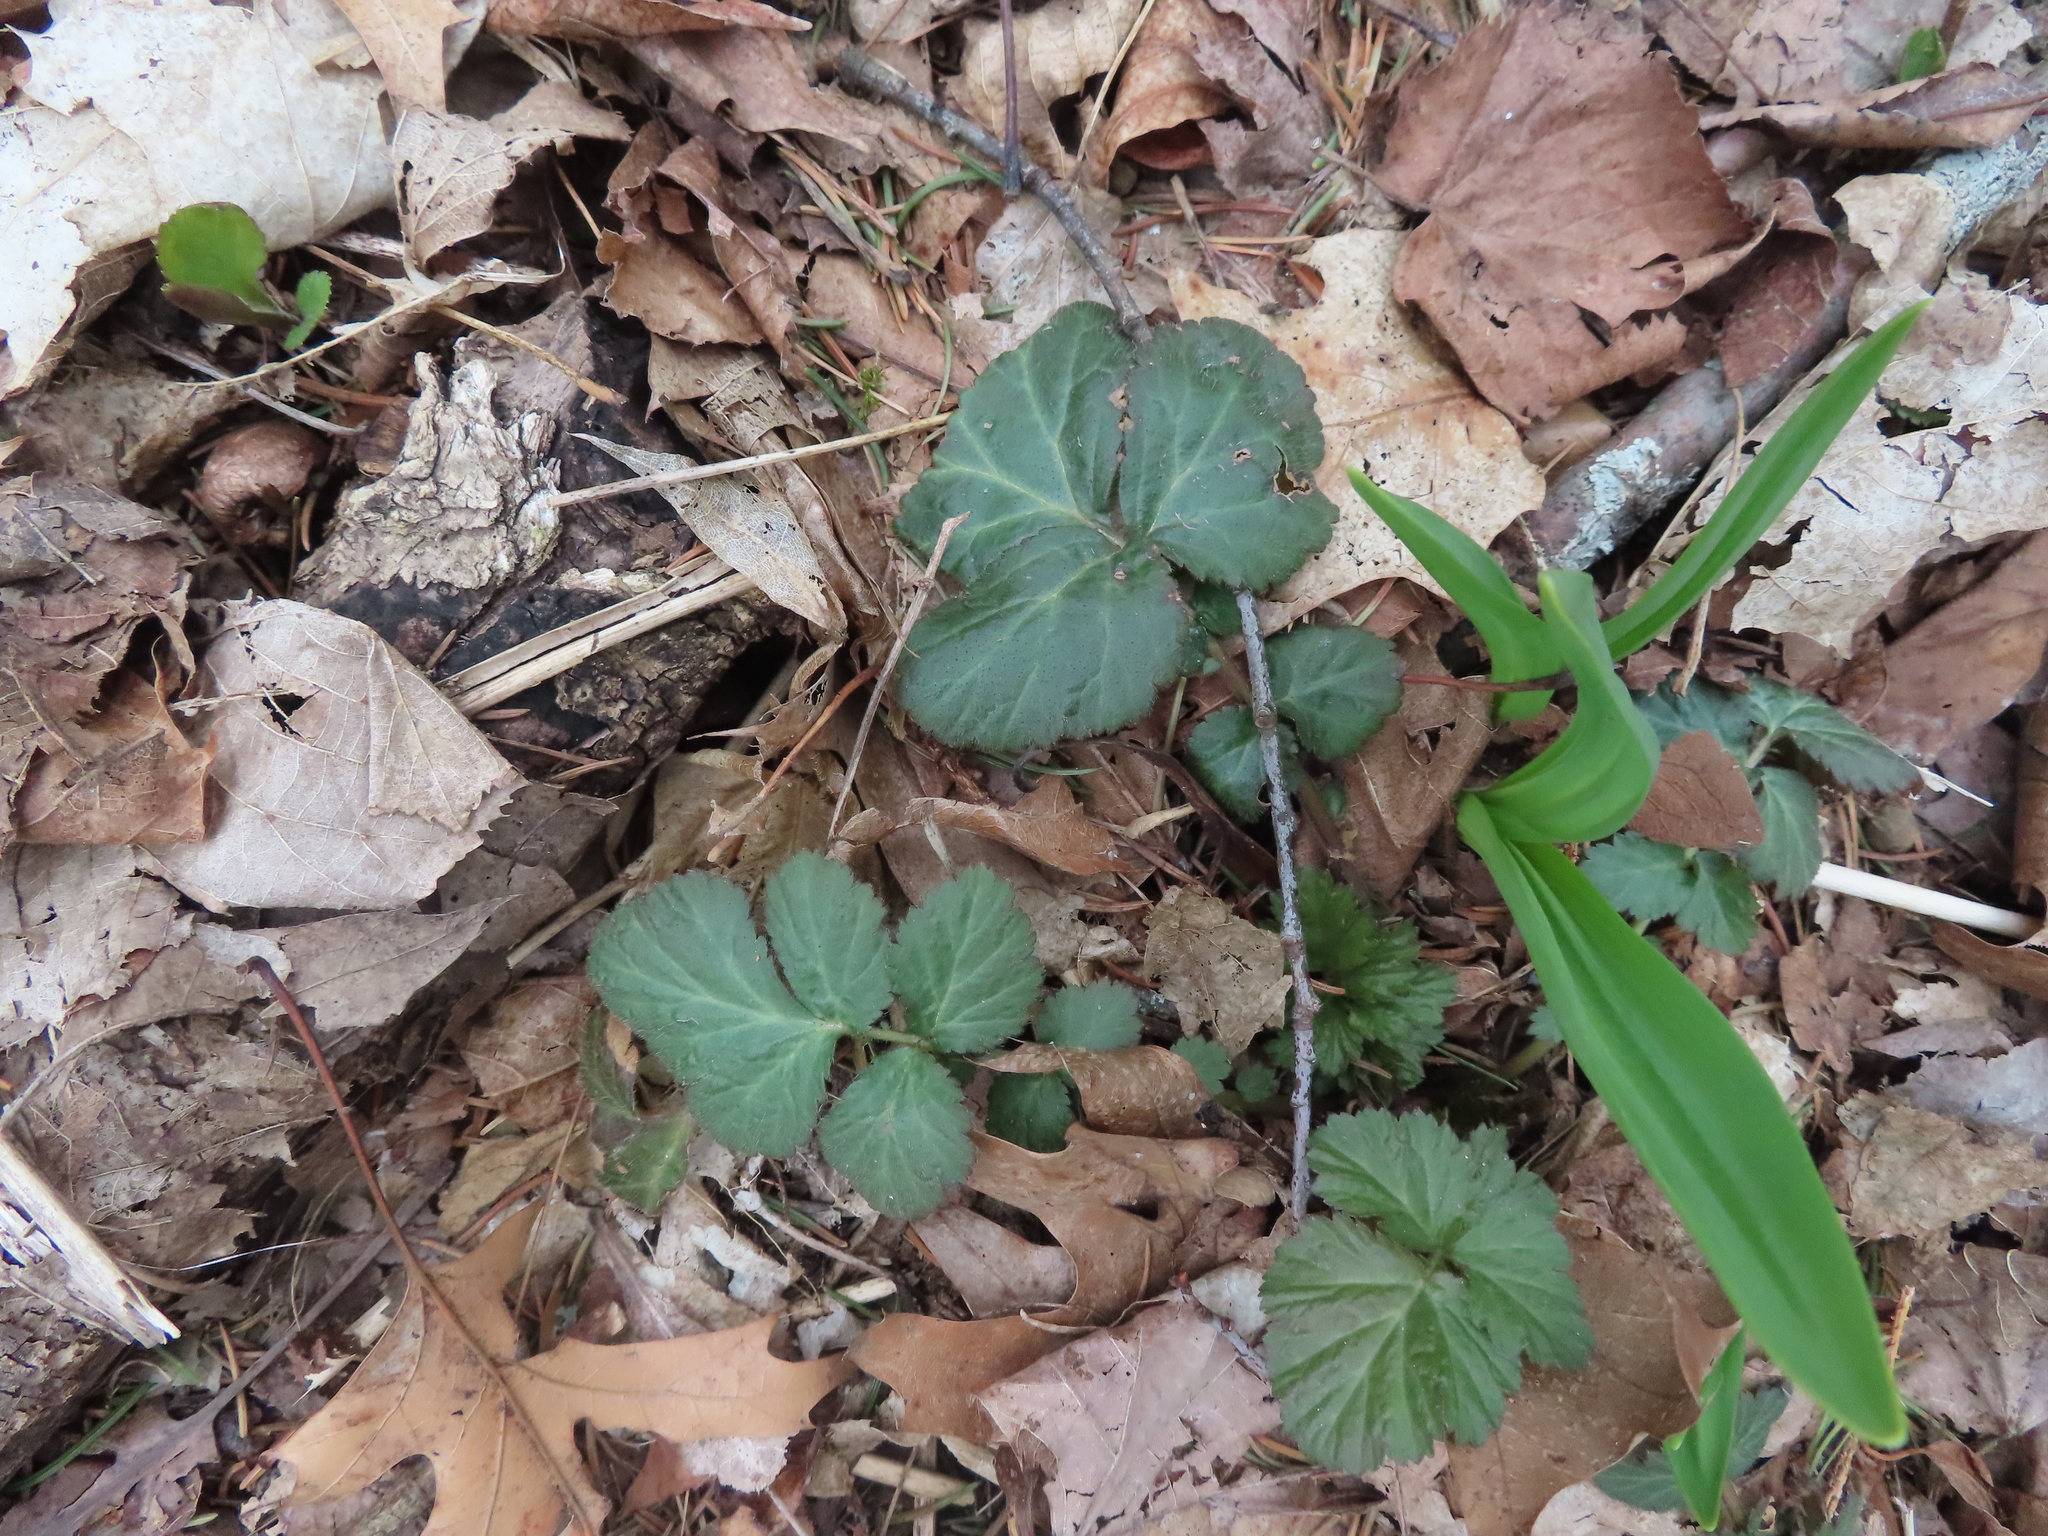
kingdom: Plantae
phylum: Tracheophyta
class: Magnoliopsida
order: Rosales
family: Rosaceae
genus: Geum
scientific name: Geum canadense
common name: White avens
